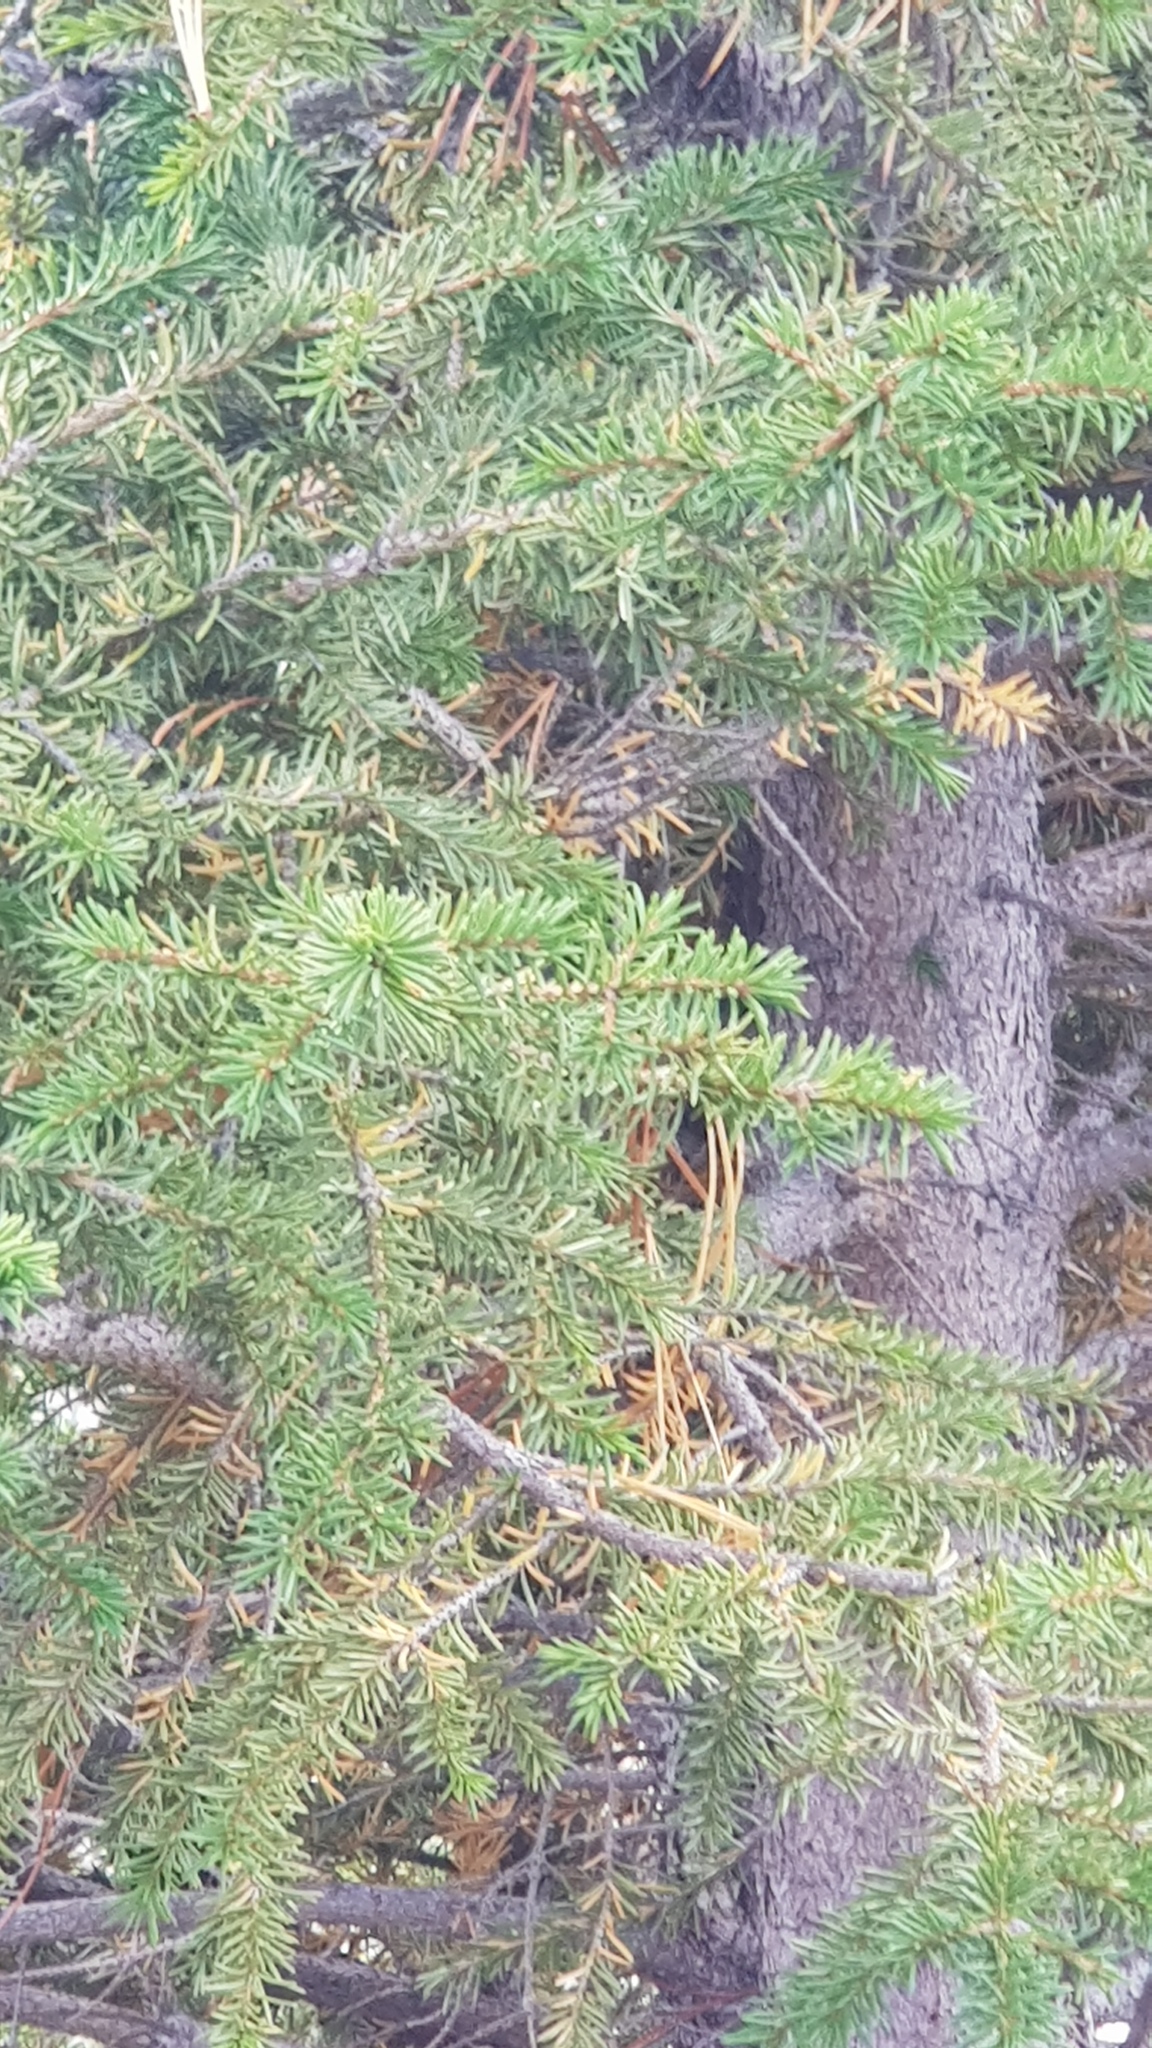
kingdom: Plantae
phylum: Tracheophyta
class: Pinopsida
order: Pinales
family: Pinaceae
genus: Picea
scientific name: Picea obovata
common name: Siberian spruce
